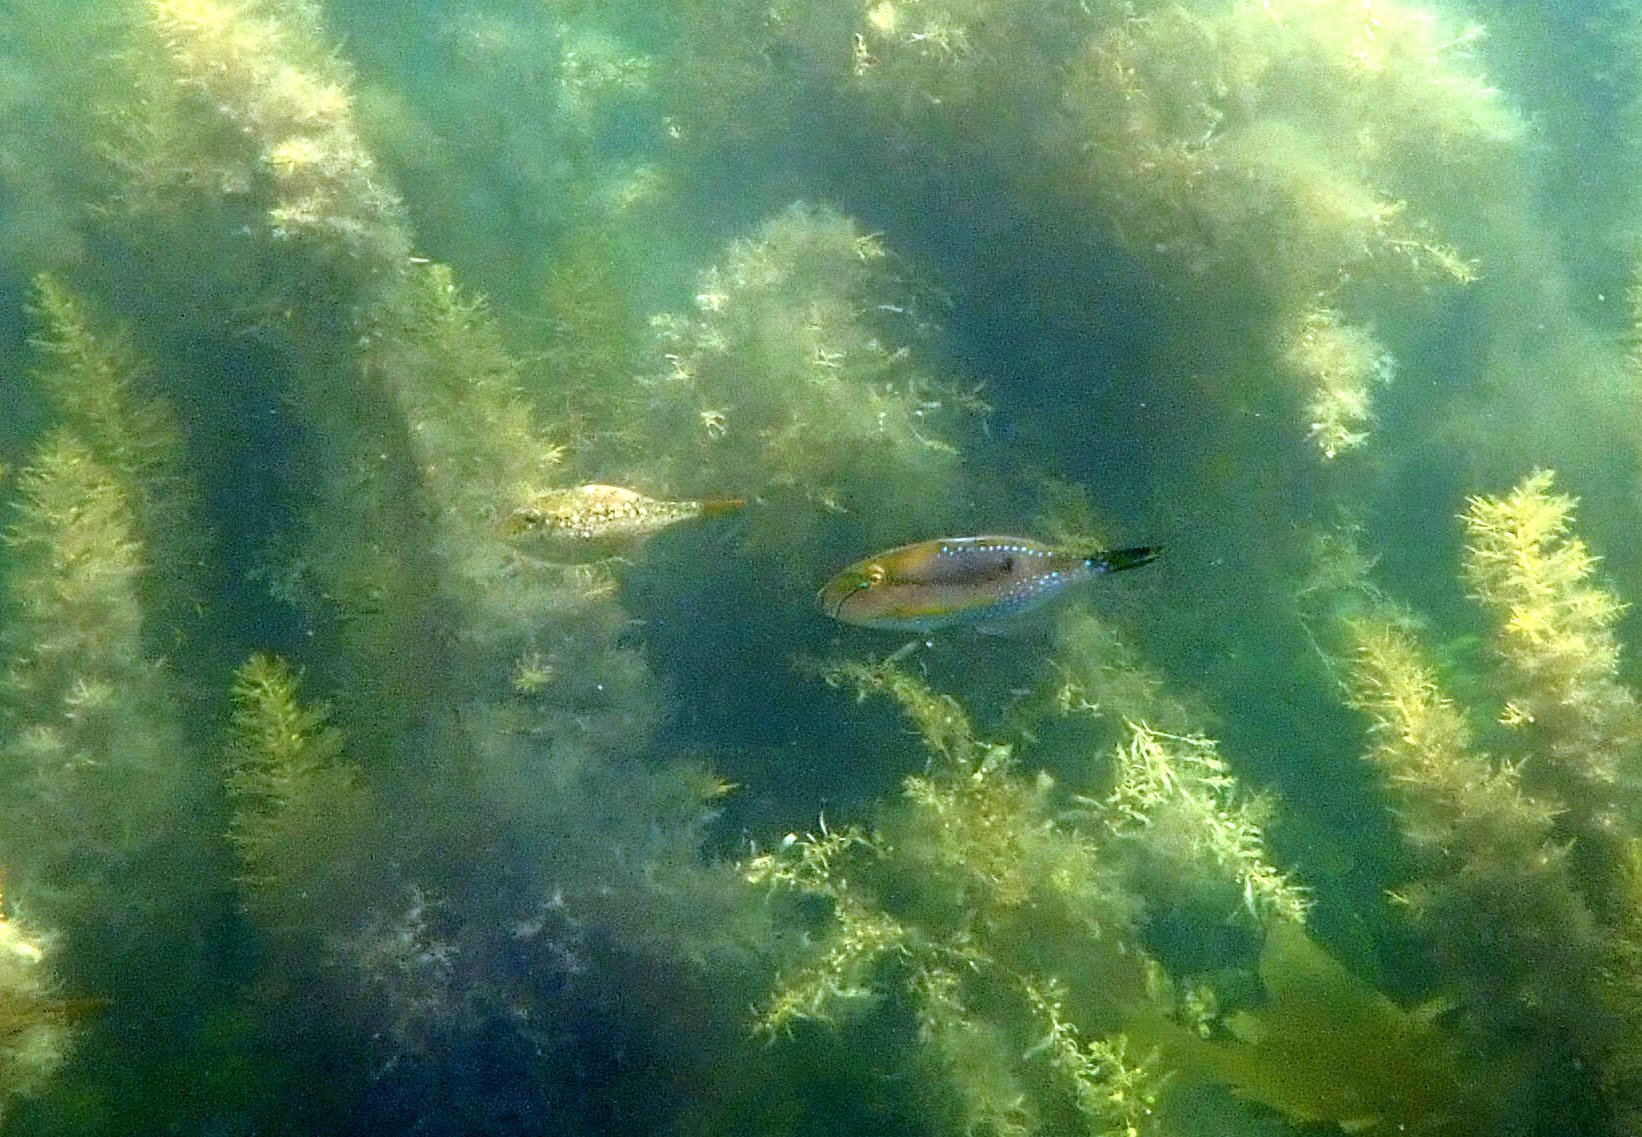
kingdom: Animalia
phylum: Chordata
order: Tetraodontiformes
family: Monacanthidae
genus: Acanthaluteres
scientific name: Acanthaluteres spilomelanurus
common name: Bridled leatherjacket
